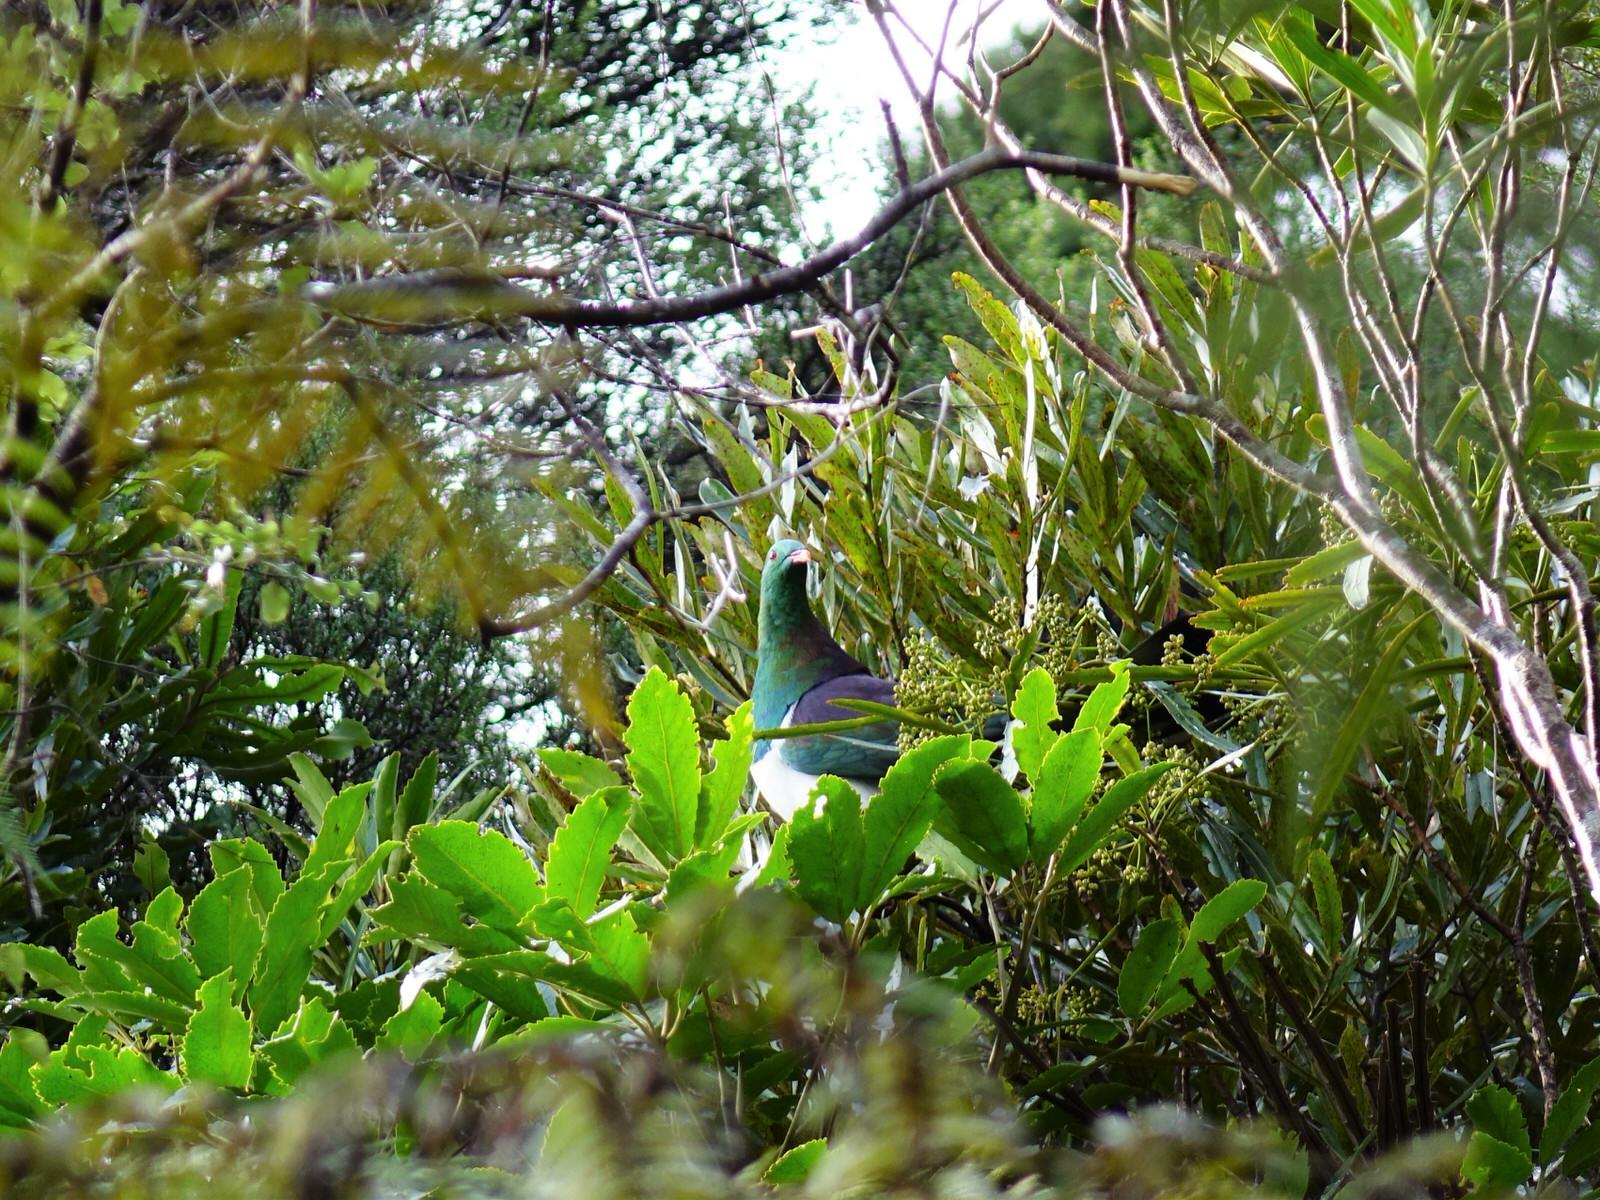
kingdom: Animalia
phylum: Chordata
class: Aves
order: Columbiformes
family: Columbidae
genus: Hemiphaga
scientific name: Hemiphaga novaeseelandiae
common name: New zealand pigeon
